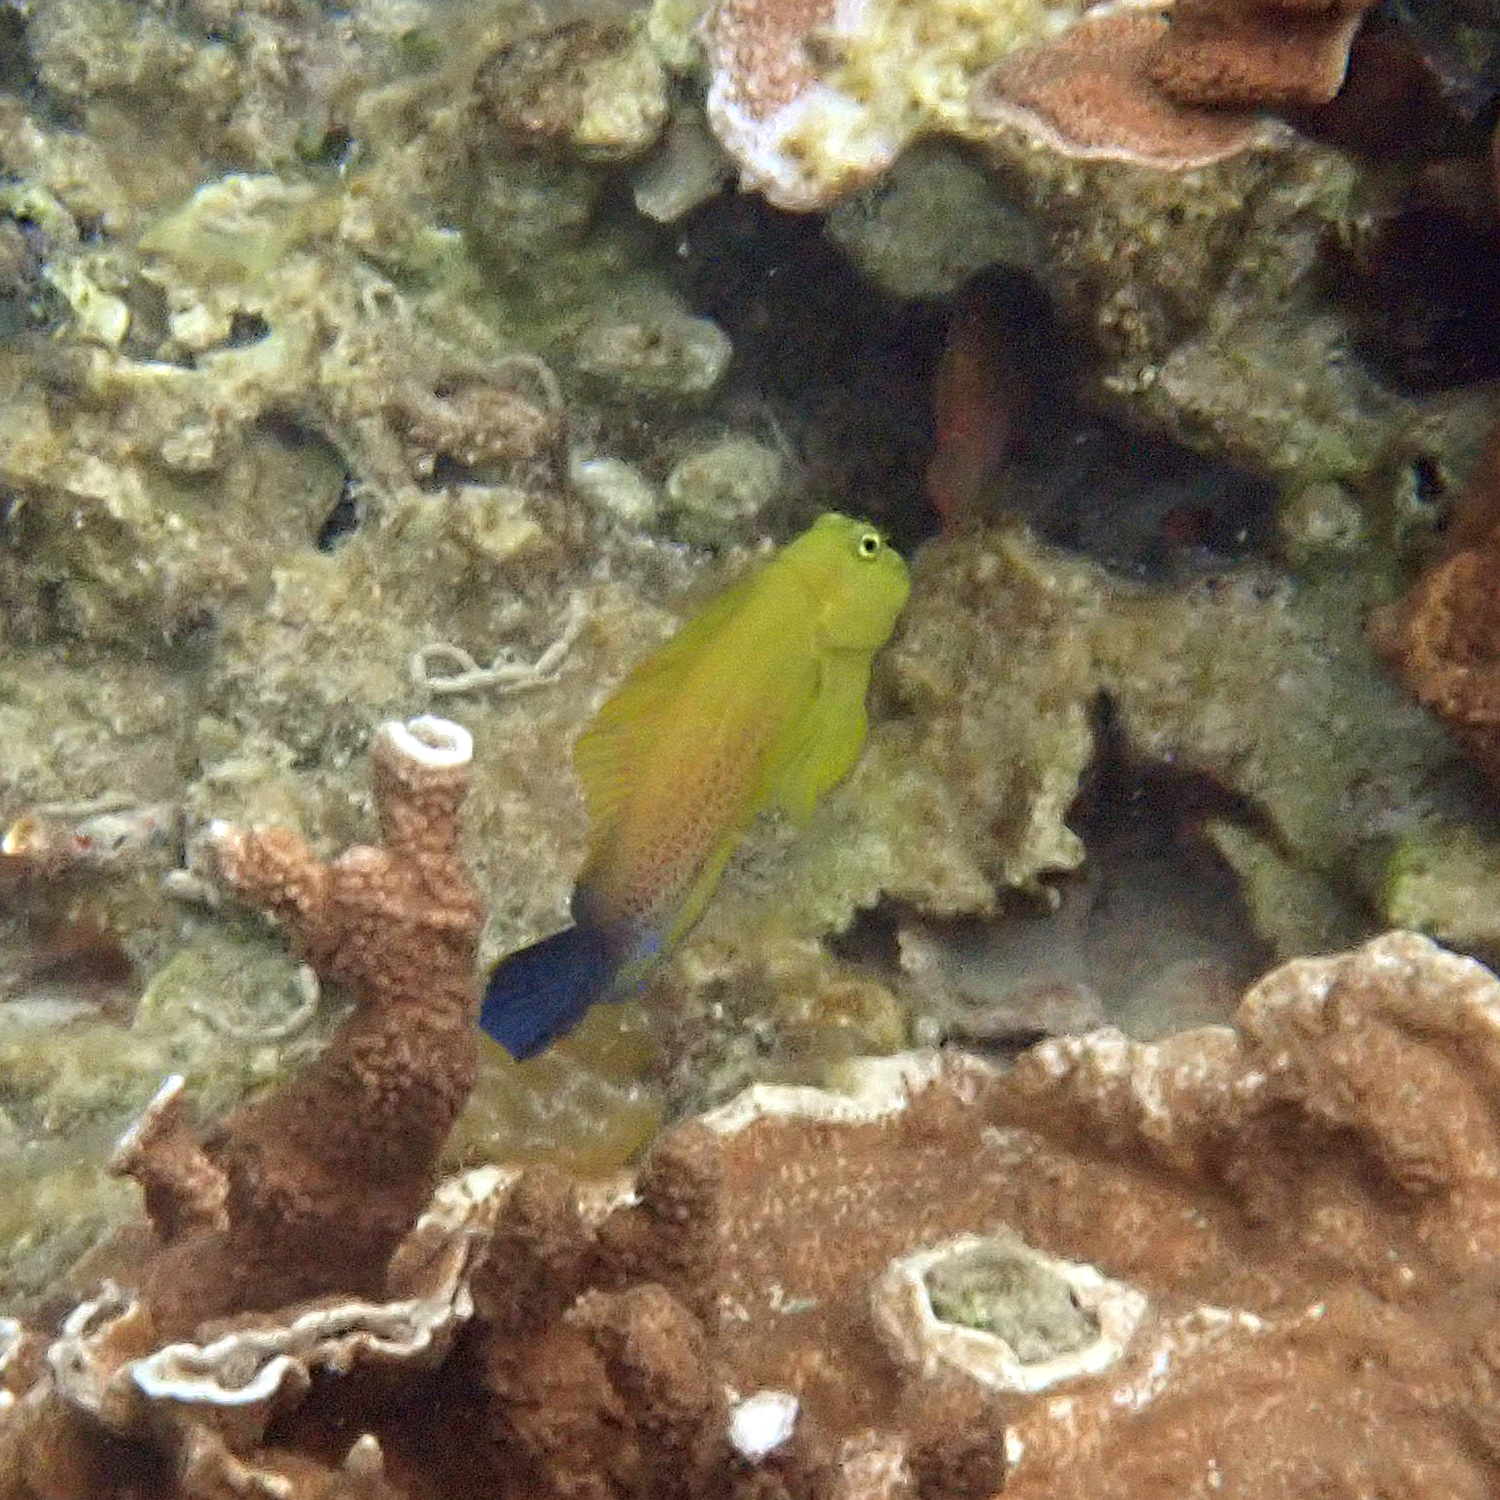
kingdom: Animalia
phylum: Chordata
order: Perciformes
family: Blenniidae
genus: Cirripectes
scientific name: Cirripectes chelomatus
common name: Lady musgrave blenny
